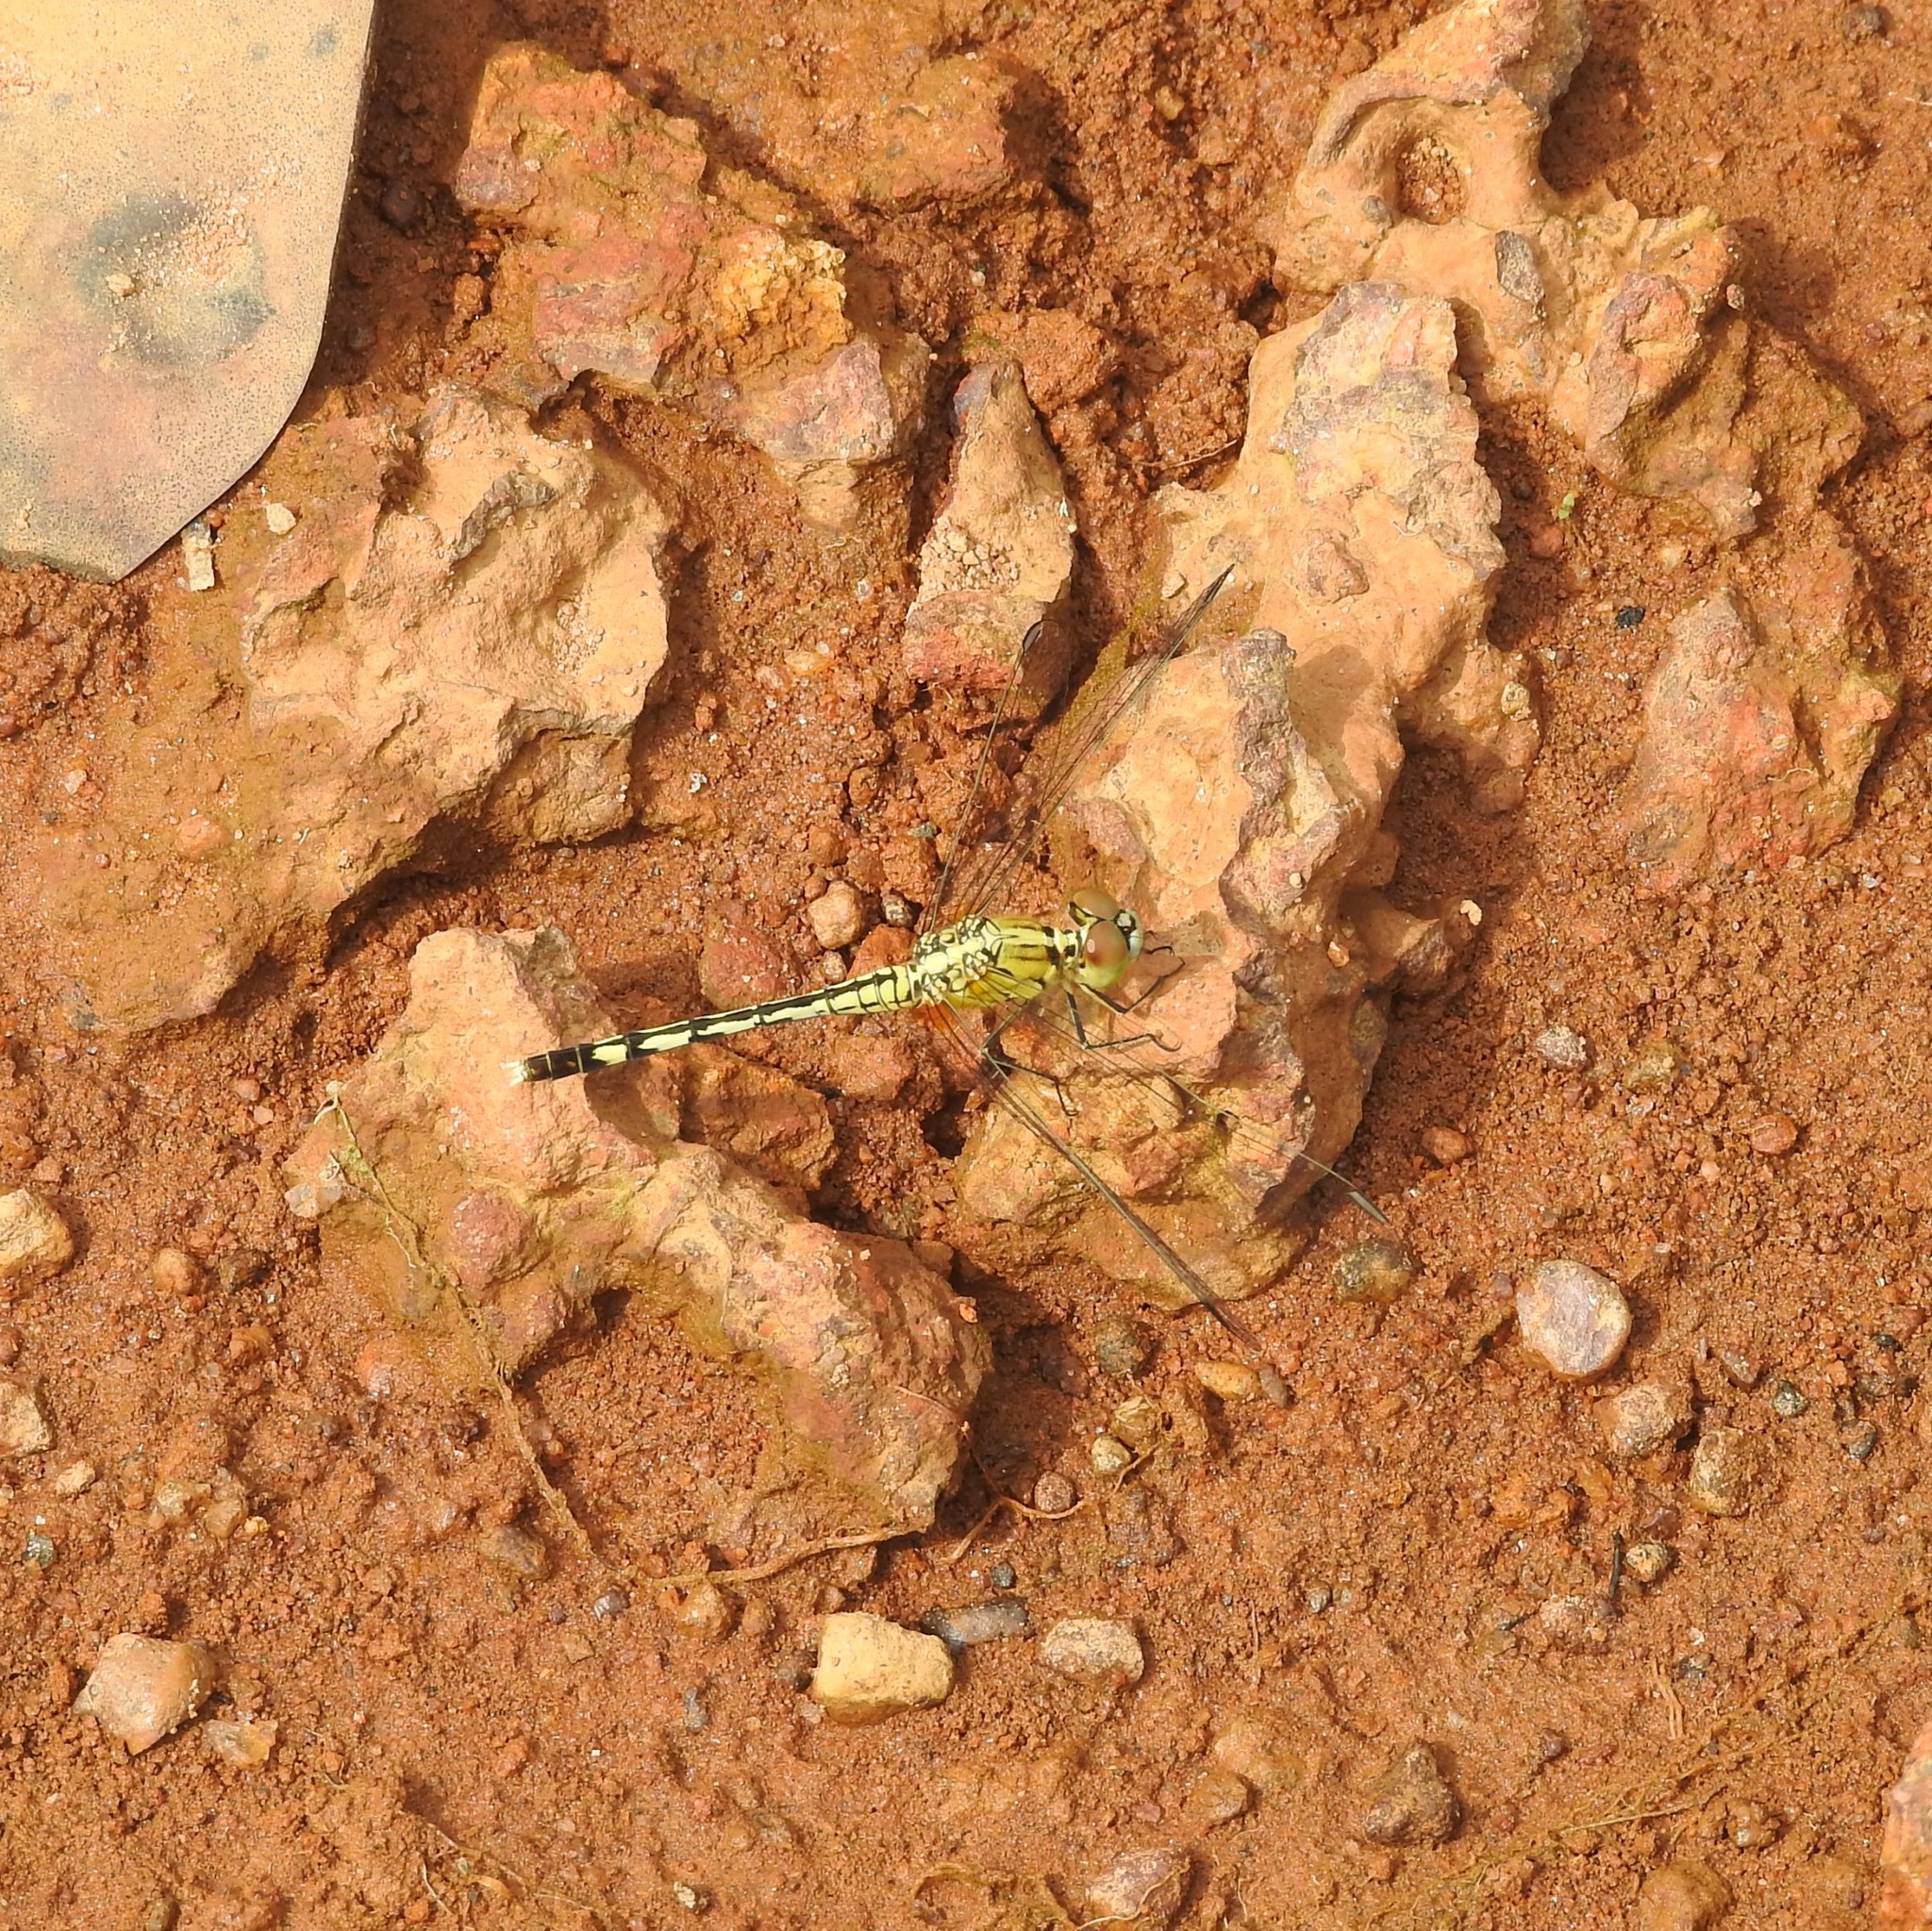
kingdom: Animalia
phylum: Arthropoda
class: Insecta
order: Odonata
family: Libellulidae
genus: Diplacodes
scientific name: Diplacodes trivialis
